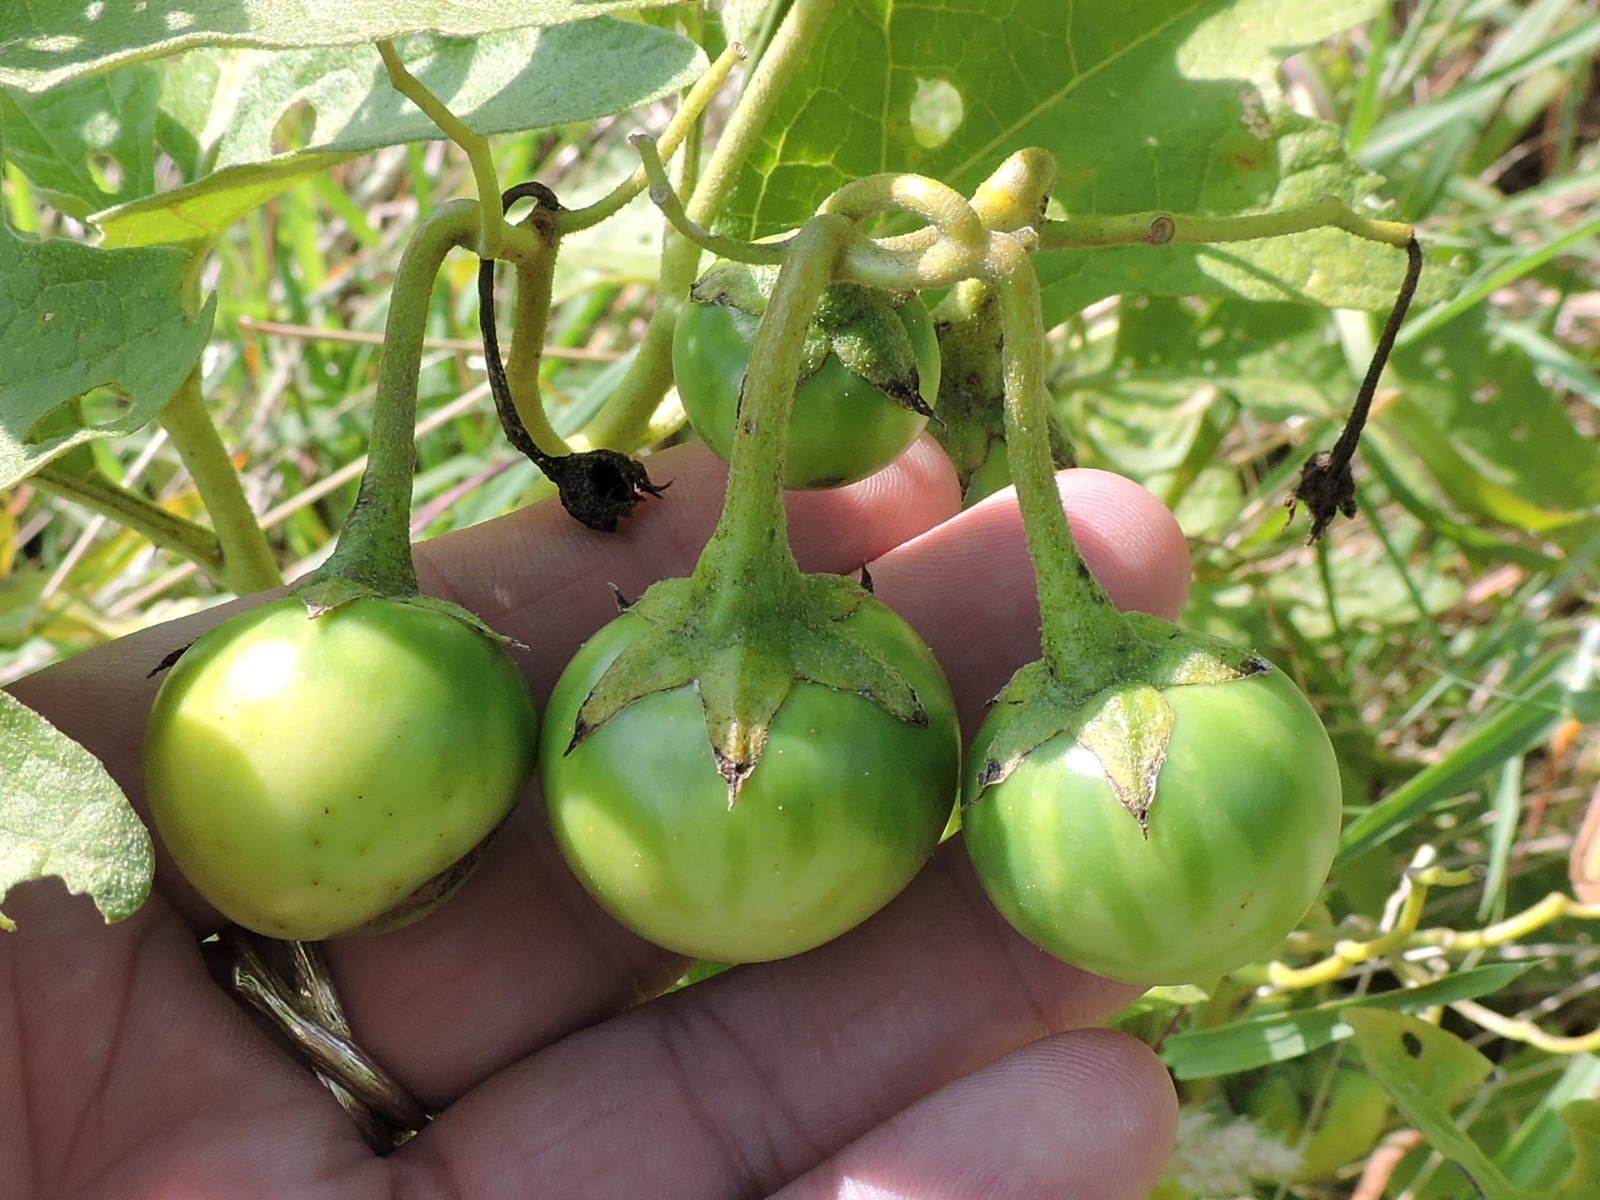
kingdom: Plantae
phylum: Tracheophyta
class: Magnoliopsida
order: Solanales
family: Solanaceae
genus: Solanum
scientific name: Solanum dimidiatum
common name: Carolina horse-nettle
